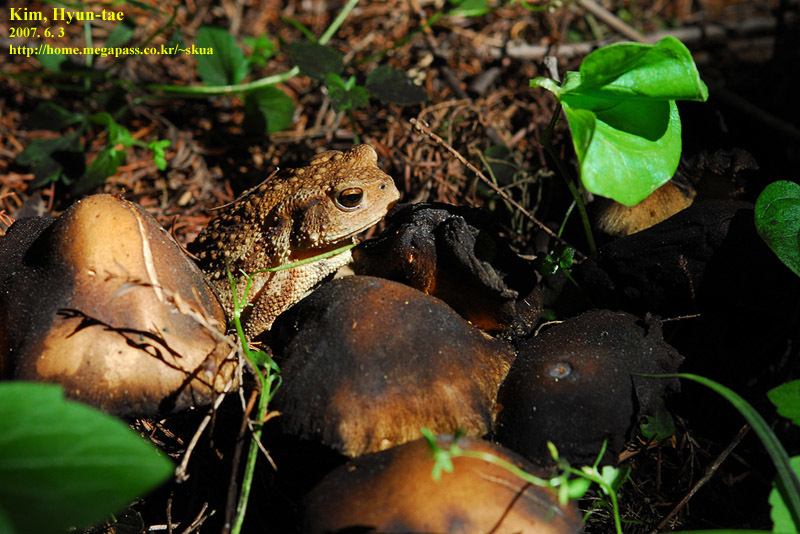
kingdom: Animalia
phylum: Chordata
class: Amphibia
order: Anura
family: Bufonidae
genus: Bufo
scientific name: Bufo gargarizans
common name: Asiatic toad
